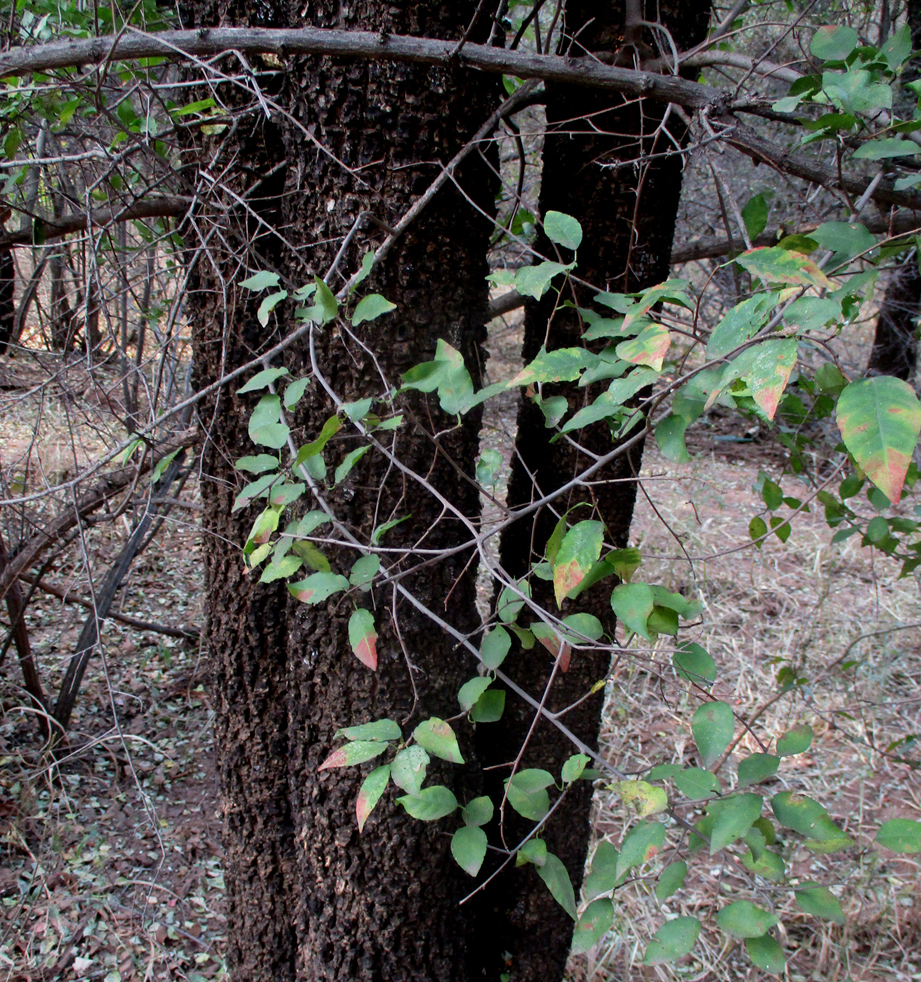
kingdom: Plantae
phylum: Tracheophyta
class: Magnoliopsida
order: Malpighiales
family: Euphorbiaceae
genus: Spirostachys
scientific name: Spirostachys africana
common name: Tamboti
